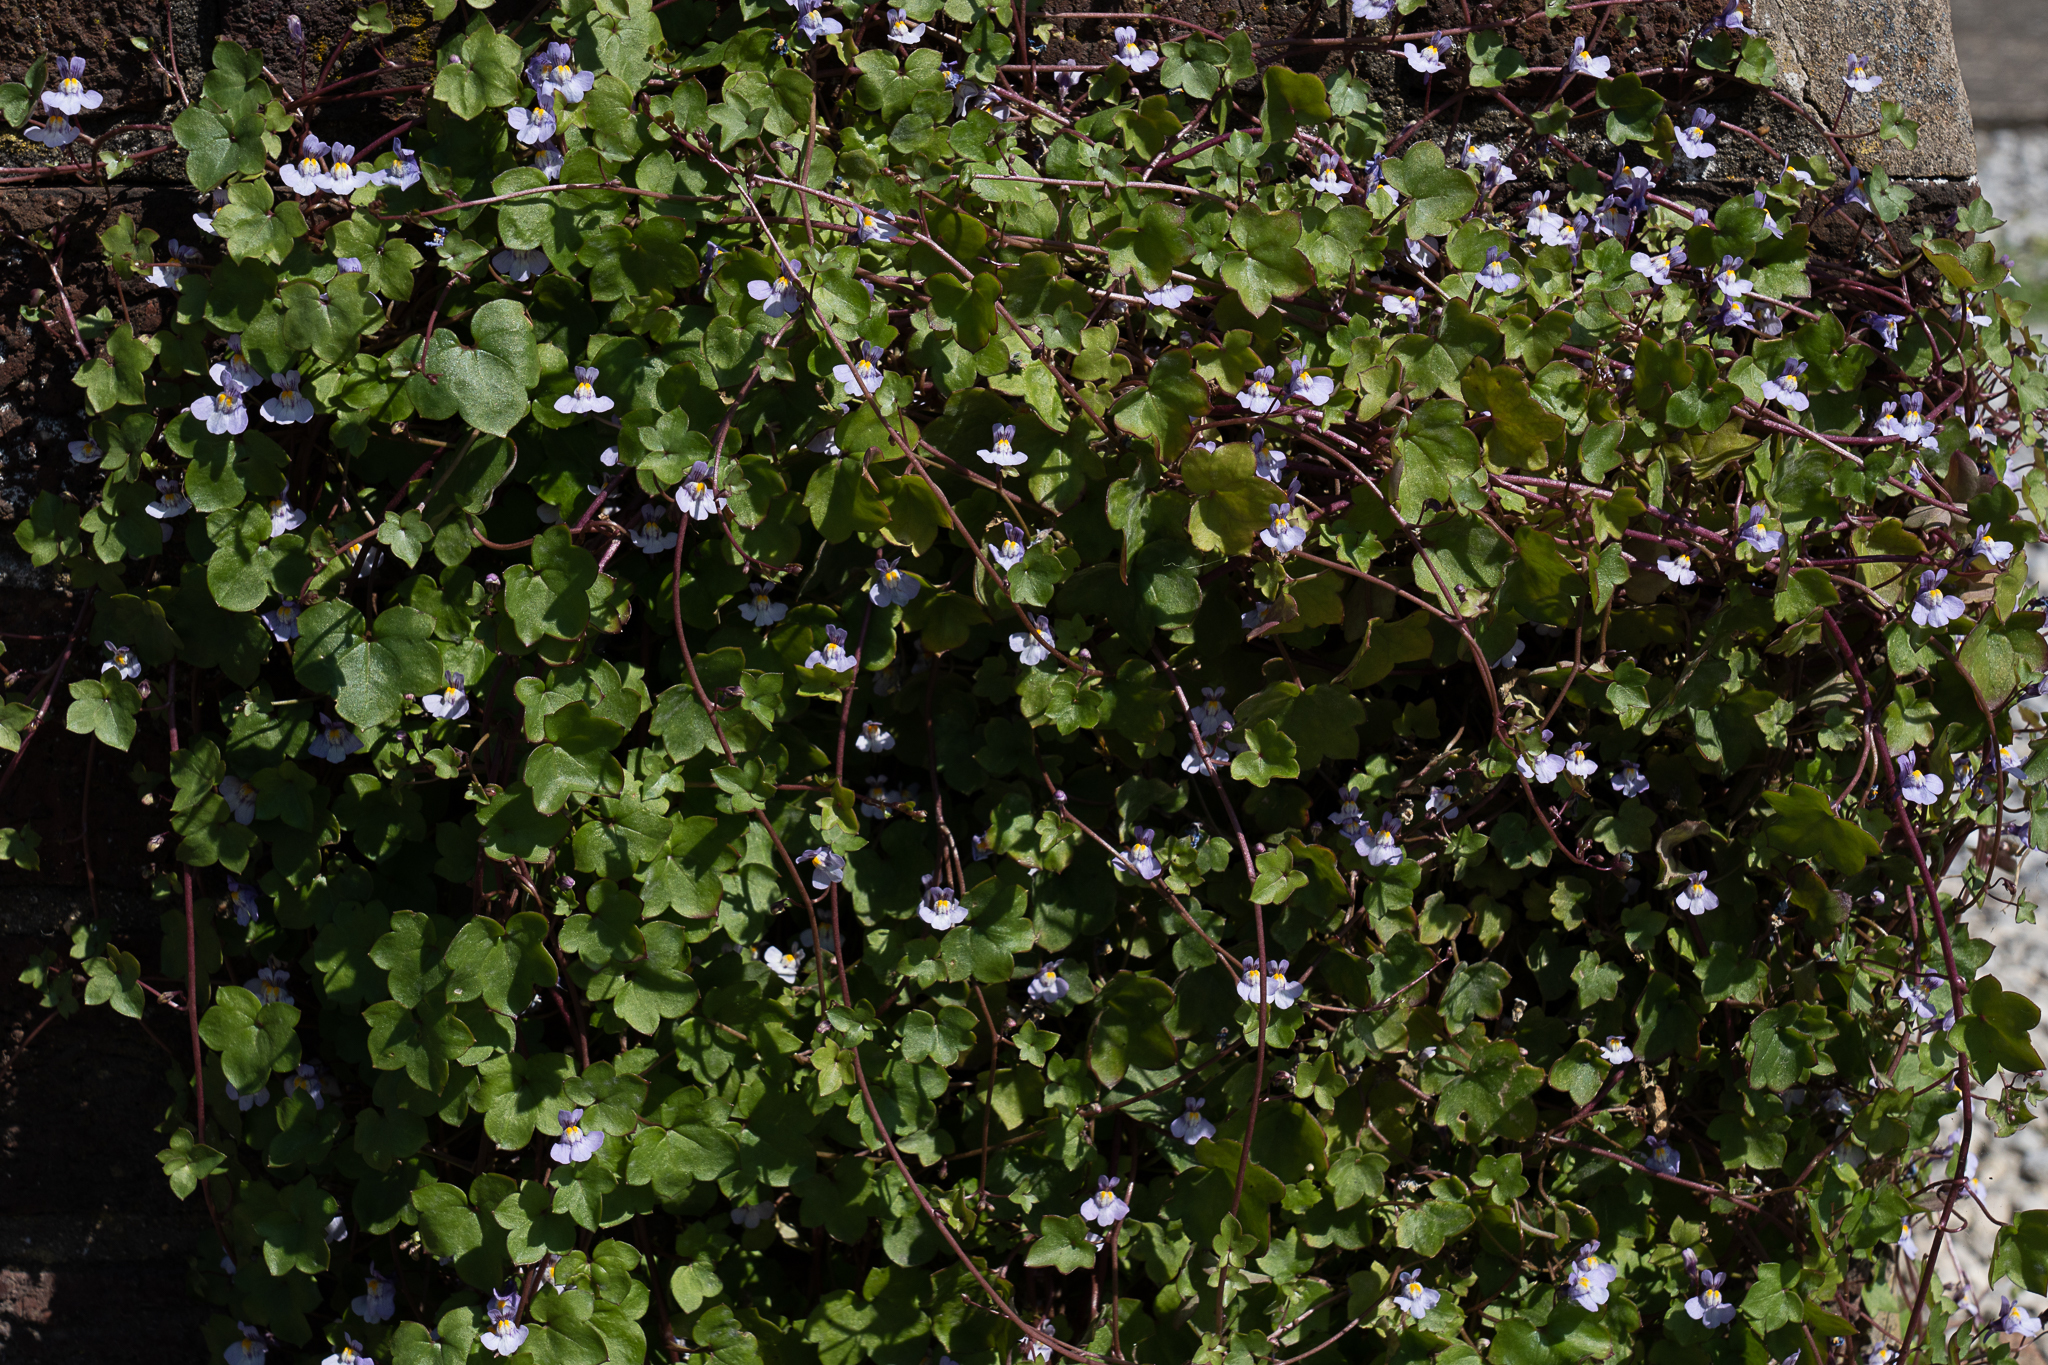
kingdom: Plantae
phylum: Tracheophyta
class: Magnoliopsida
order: Lamiales
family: Plantaginaceae
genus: Cymbalaria
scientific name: Cymbalaria muralis
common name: Ivy-leaved toadflax
